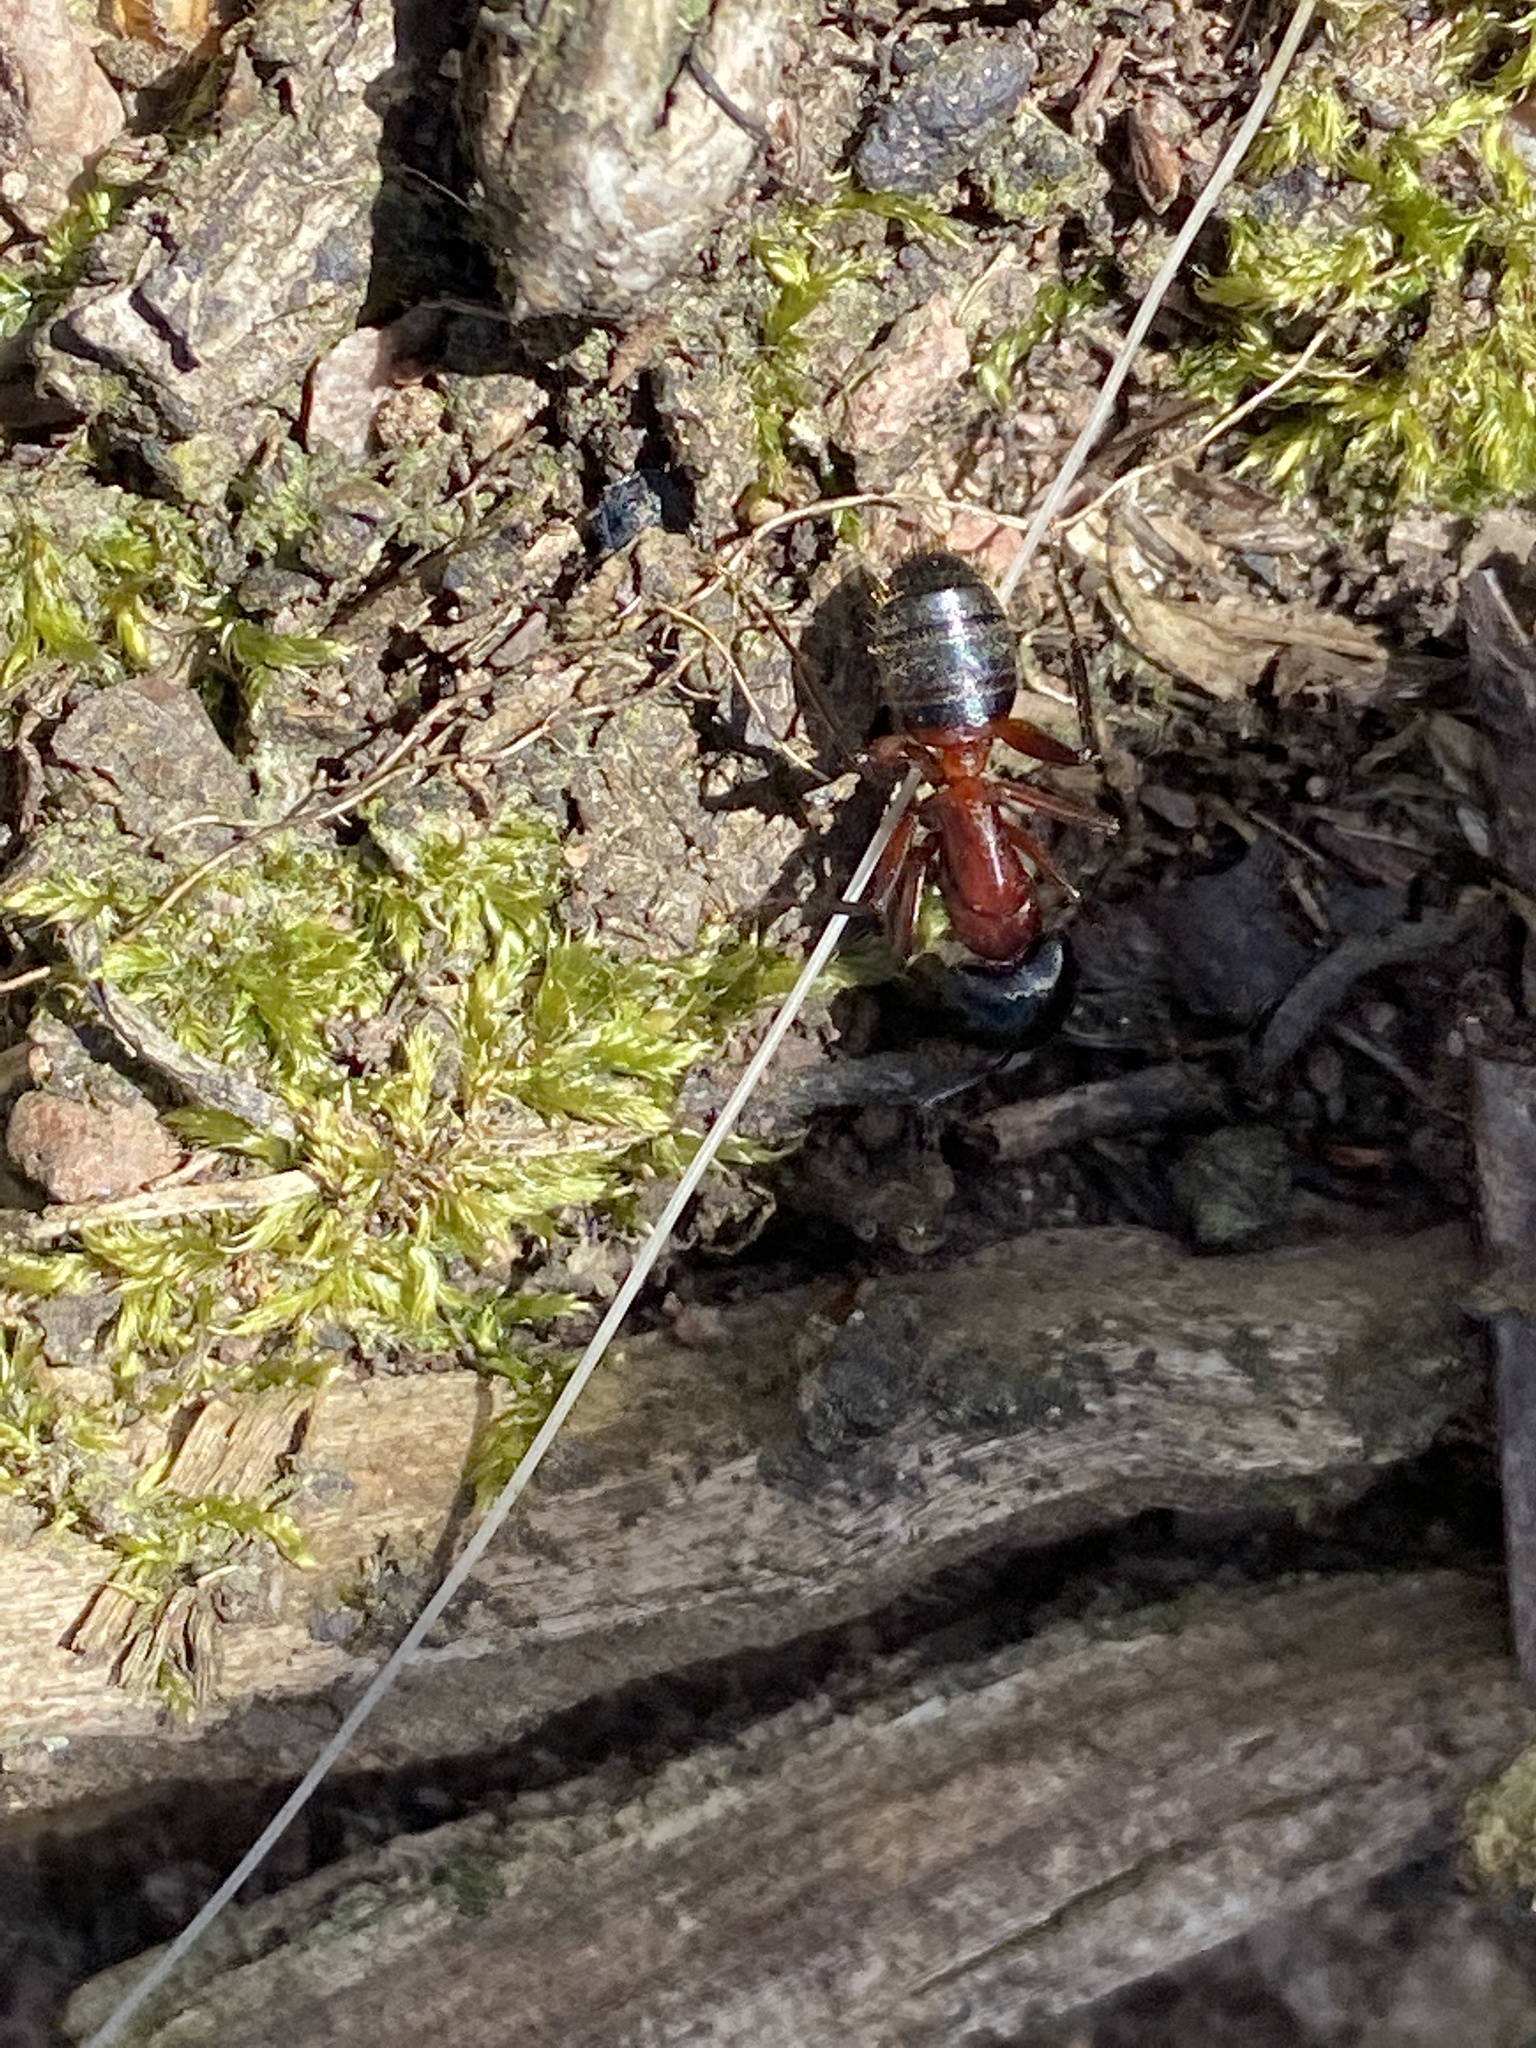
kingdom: Animalia
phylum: Arthropoda
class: Insecta
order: Hymenoptera
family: Formicidae
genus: Camponotus
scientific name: Camponotus ligniperdus
